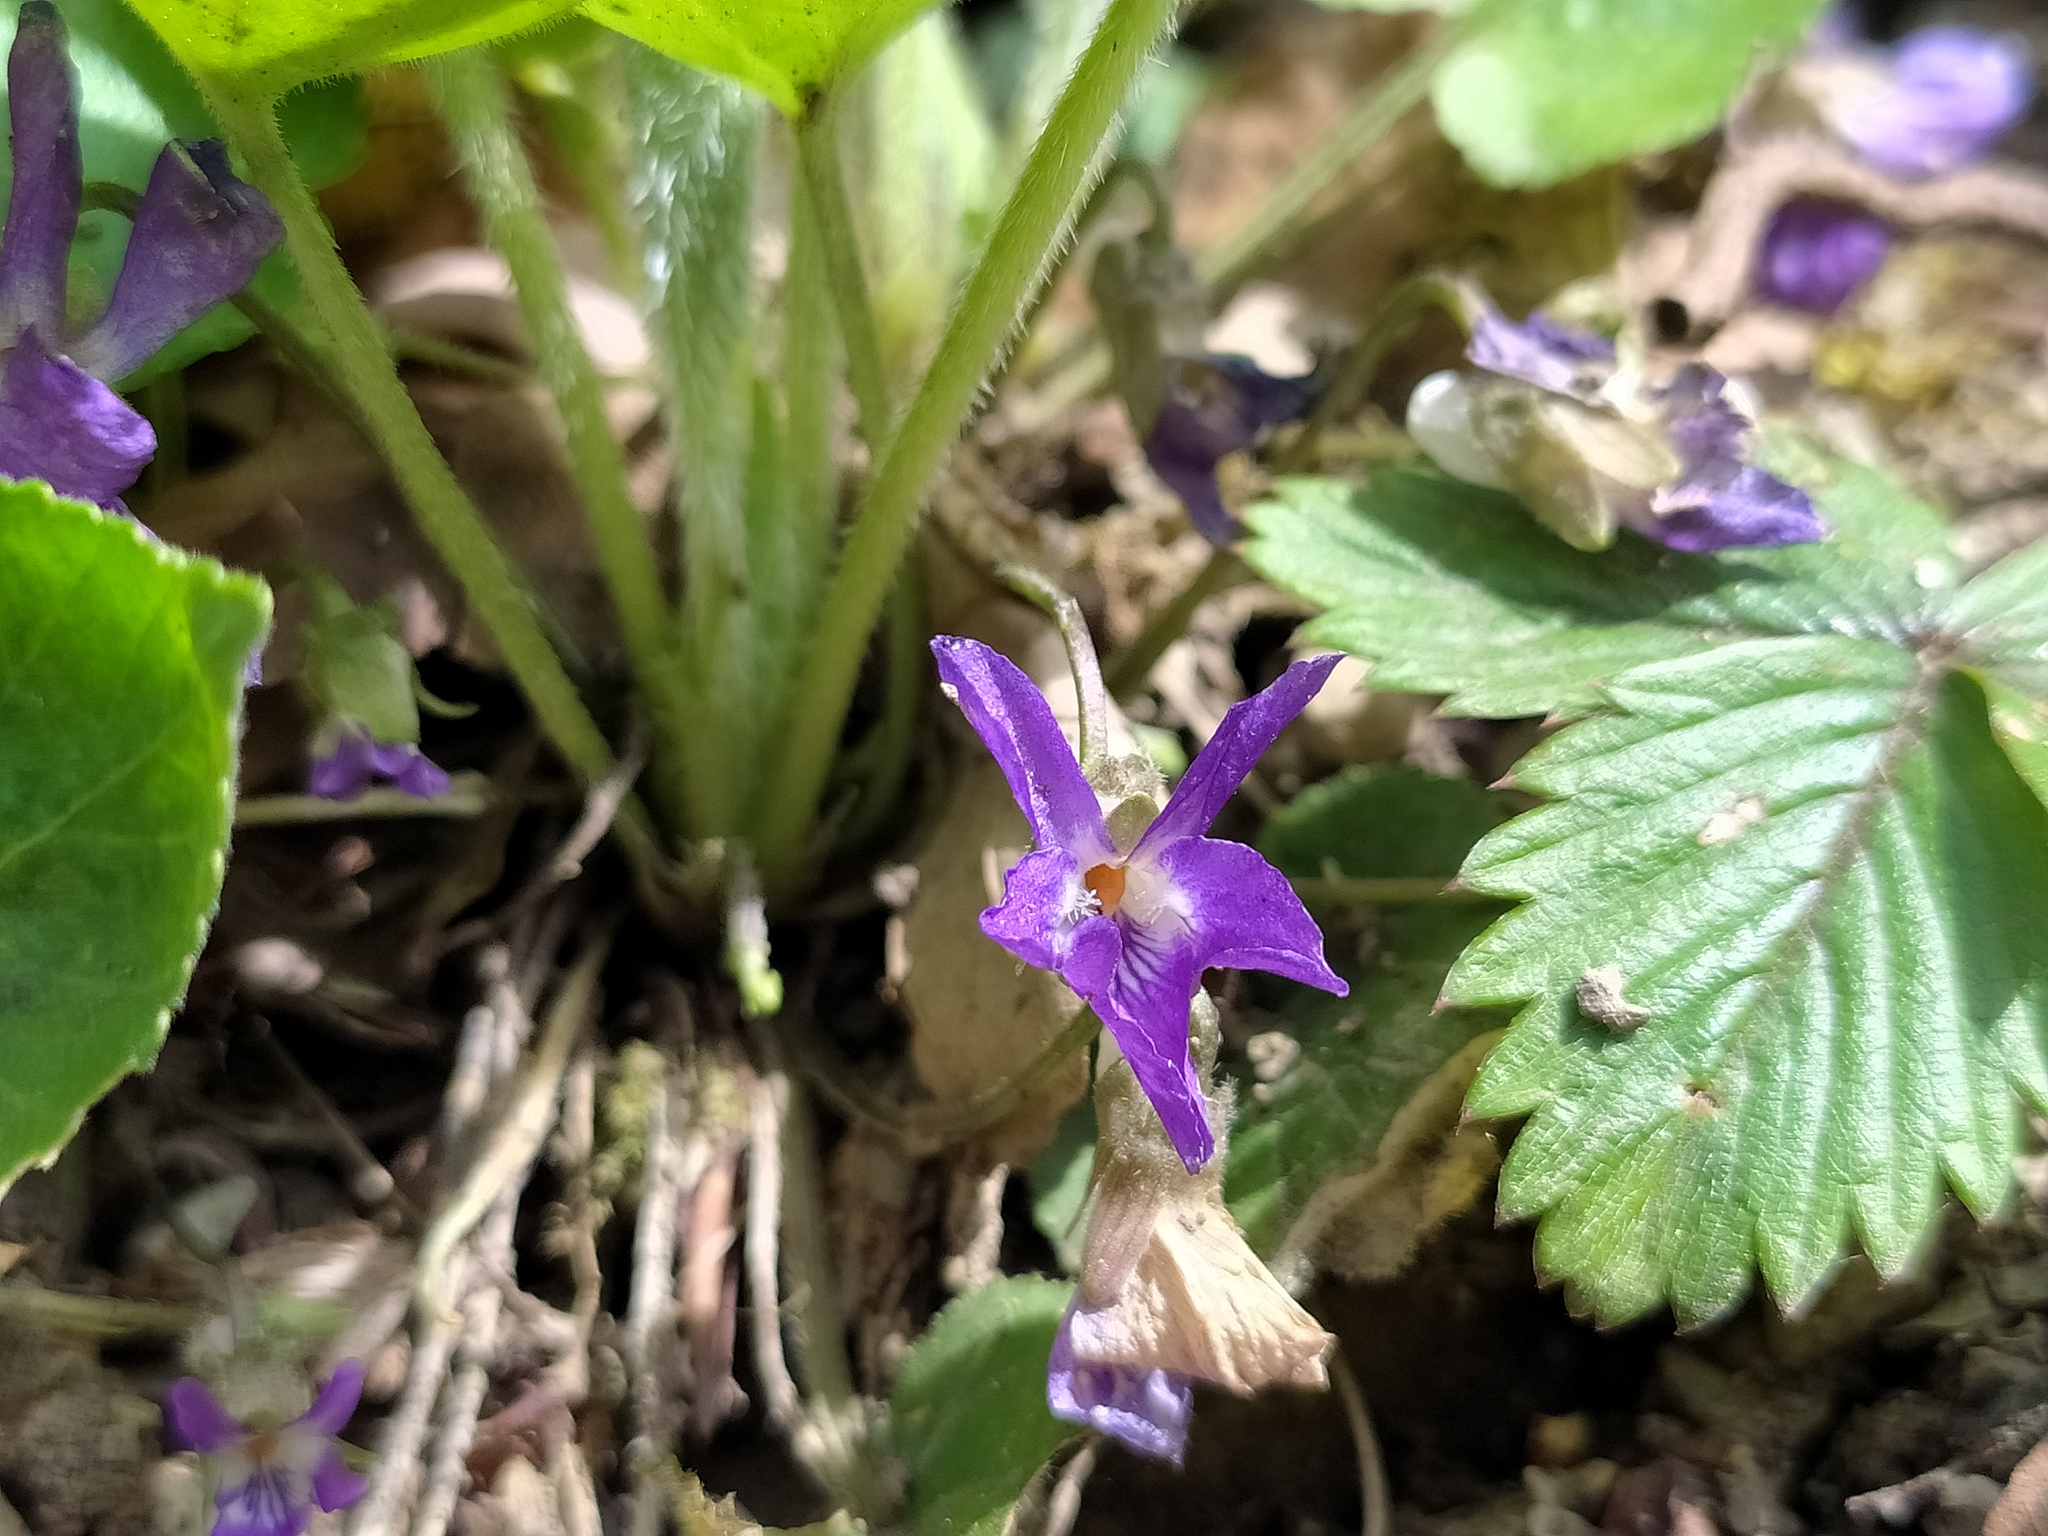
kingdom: Plantae
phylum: Tracheophyta
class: Magnoliopsida
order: Malpighiales
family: Violaceae
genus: Viola
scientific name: Viola collina
